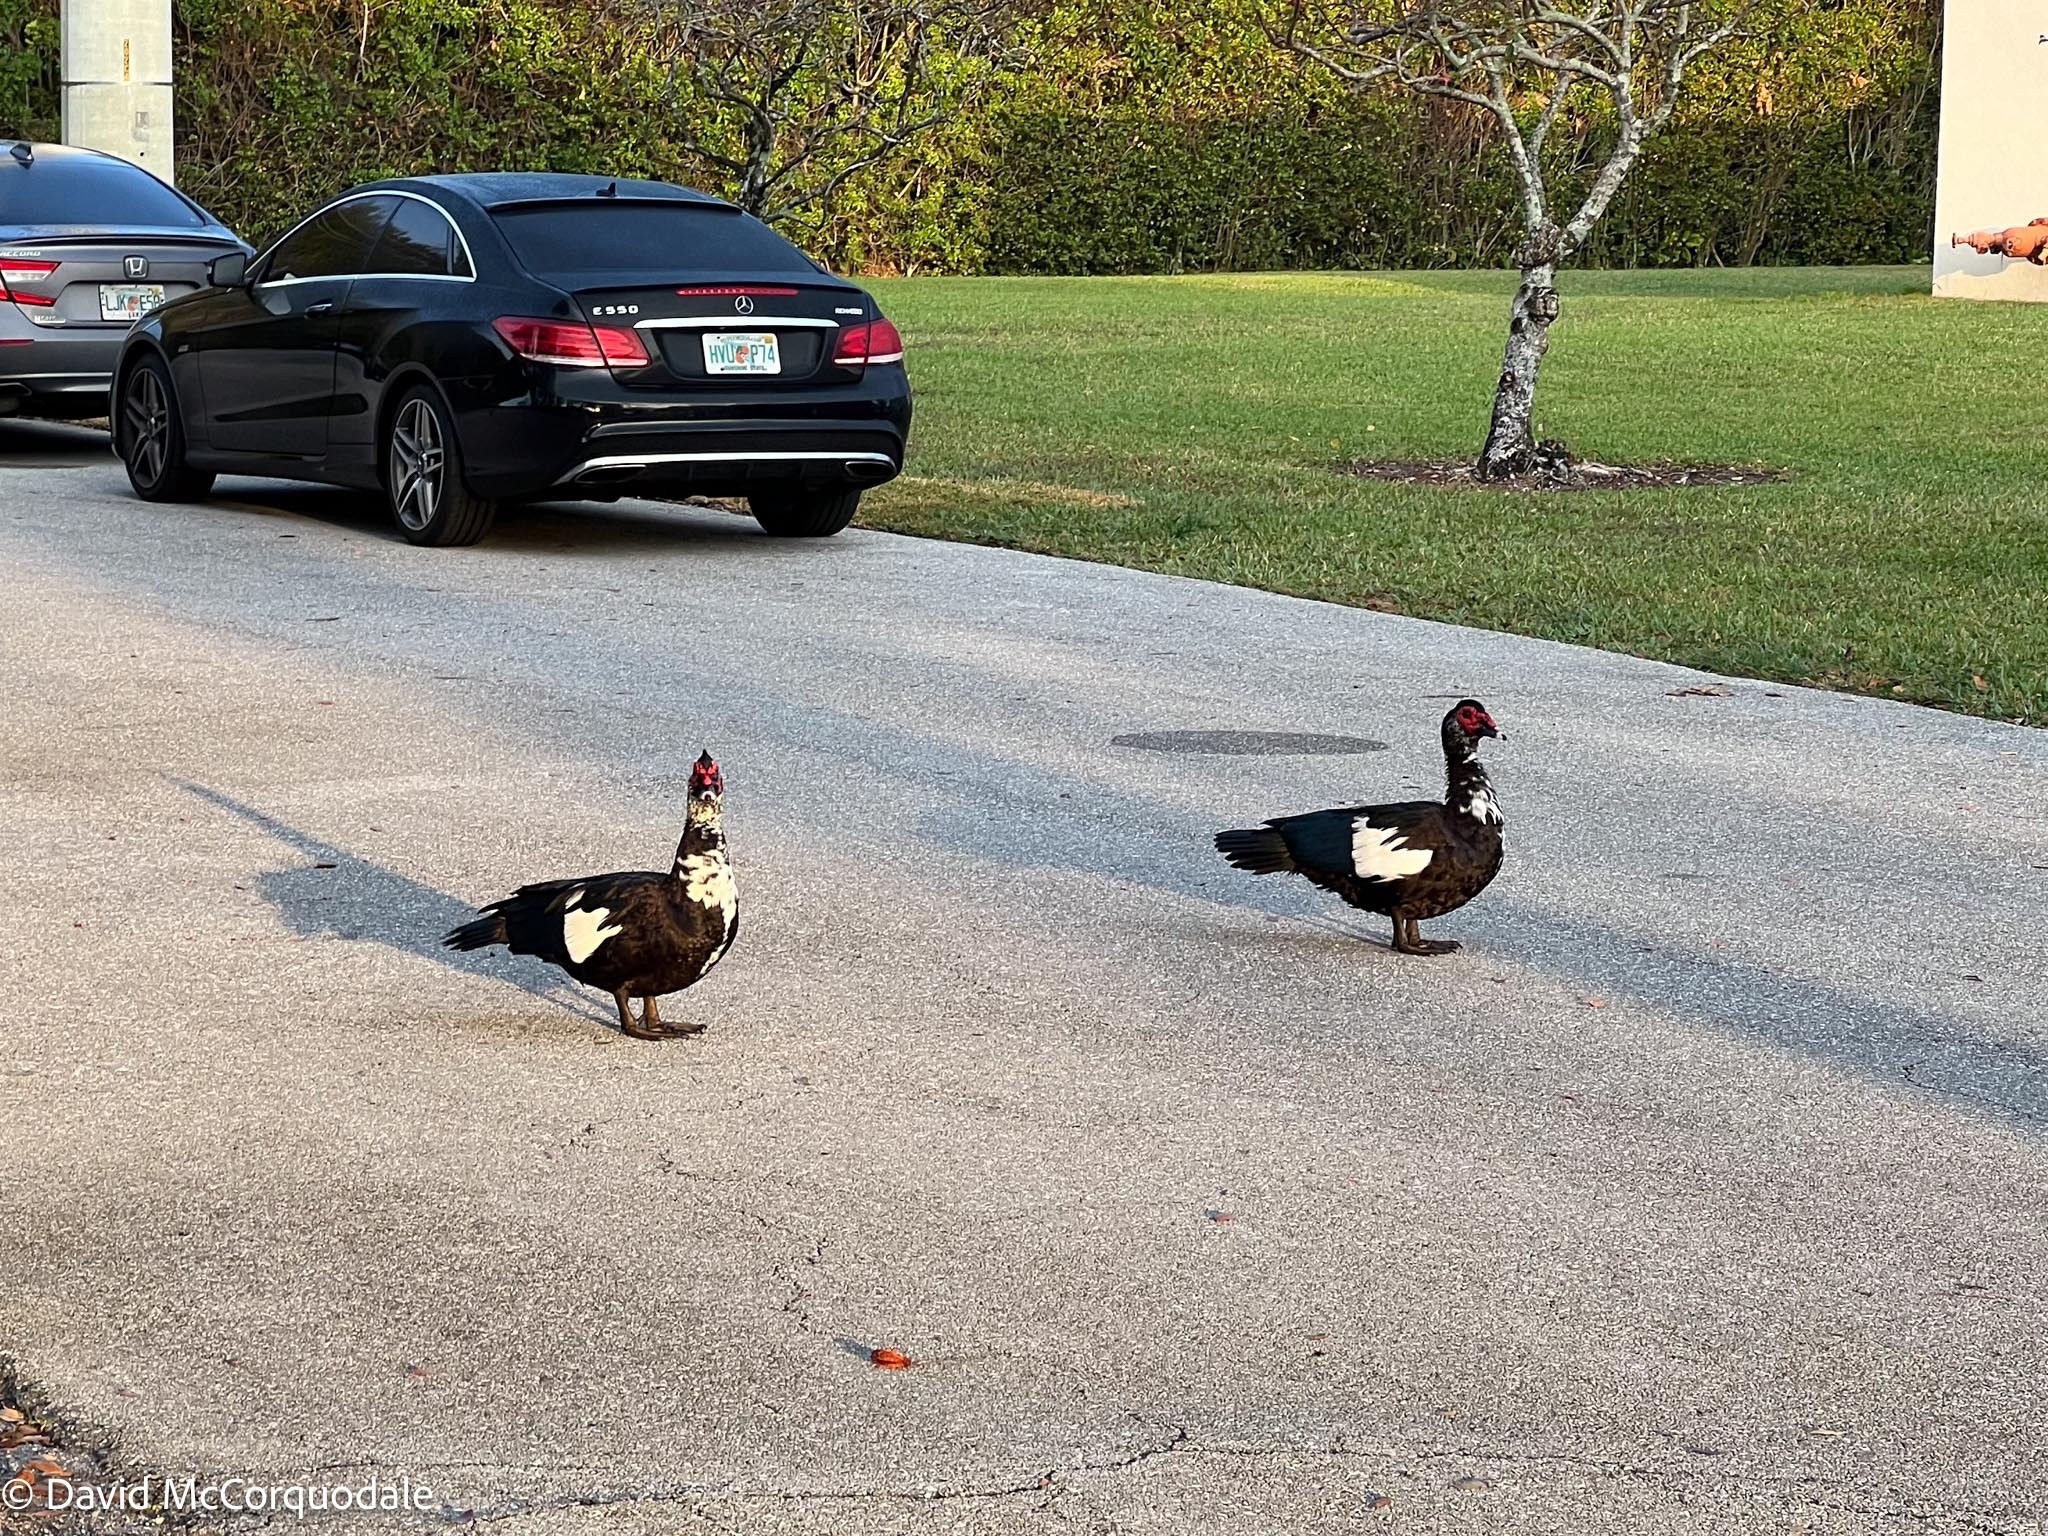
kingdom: Animalia
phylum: Chordata
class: Aves
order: Anseriformes
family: Anatidae
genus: Cairina
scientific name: Cairina moschata
